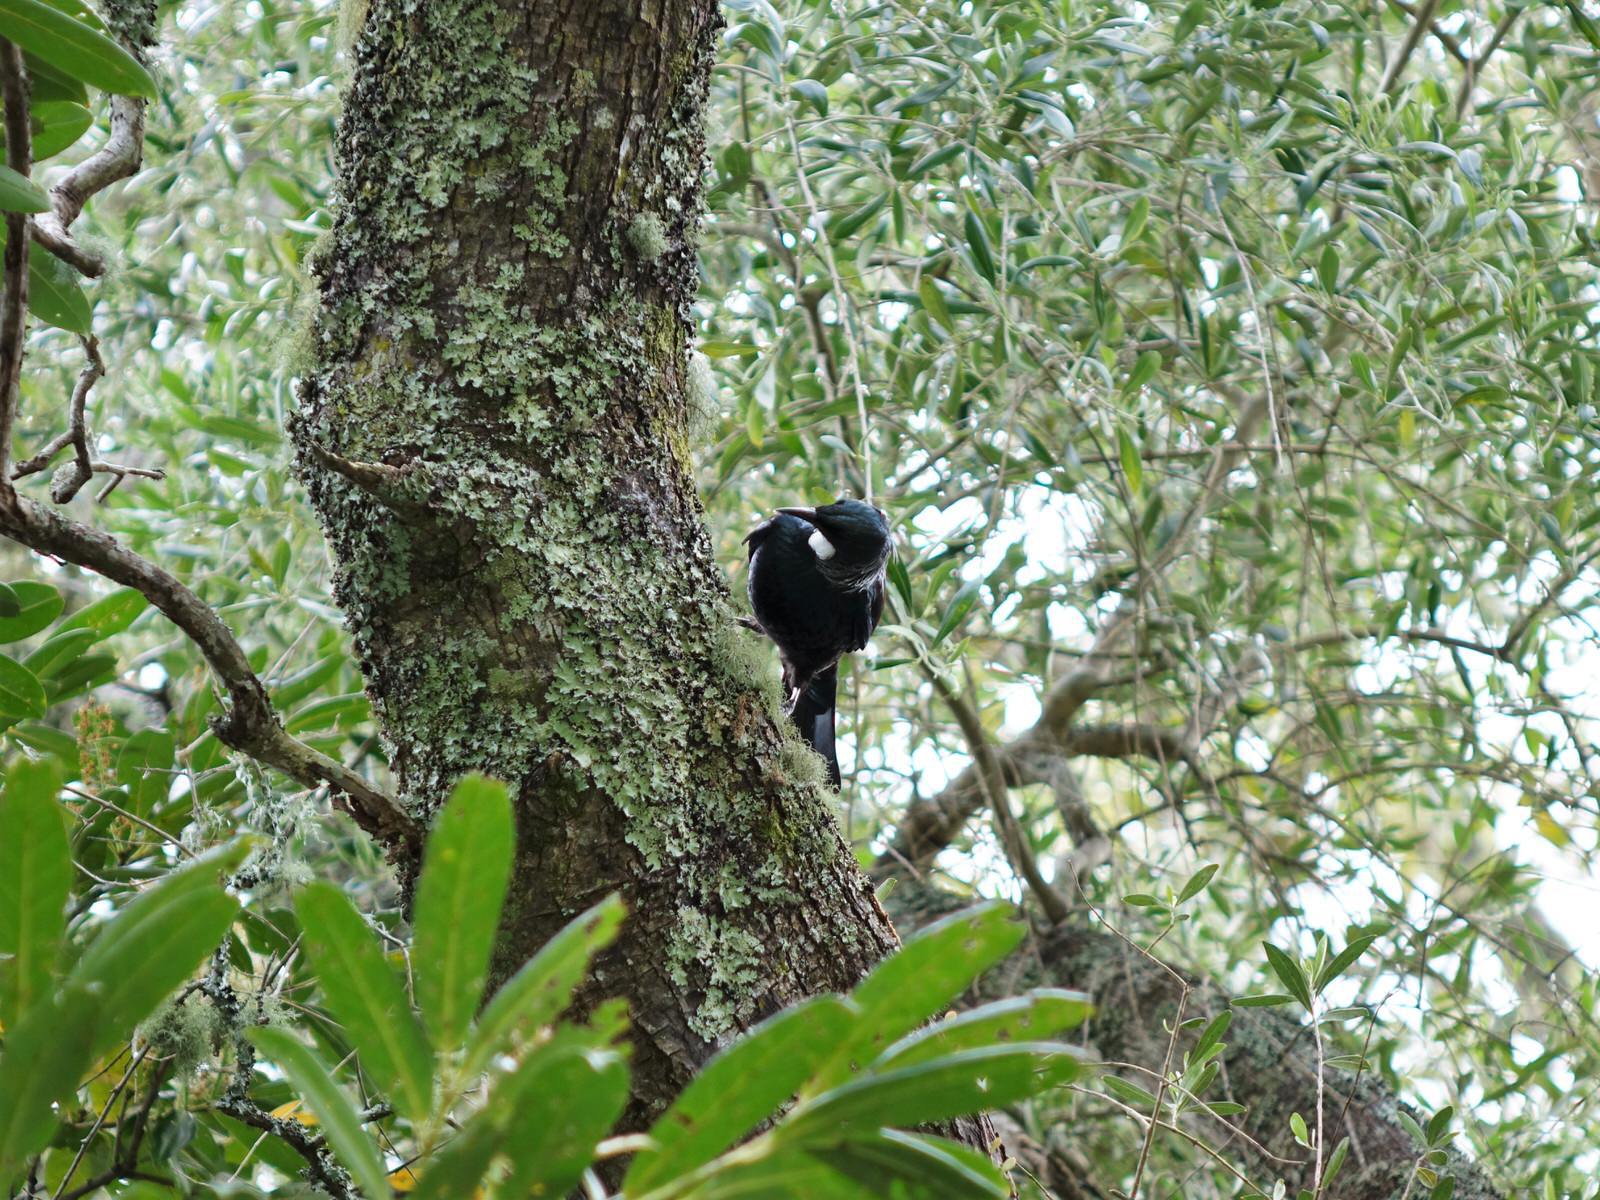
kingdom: Animalia
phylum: Chordata
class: Aves
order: Passeriformes
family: Meliphagidae
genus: Prosthemadera
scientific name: Prosthemadera novaeseelandiae
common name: Tui
